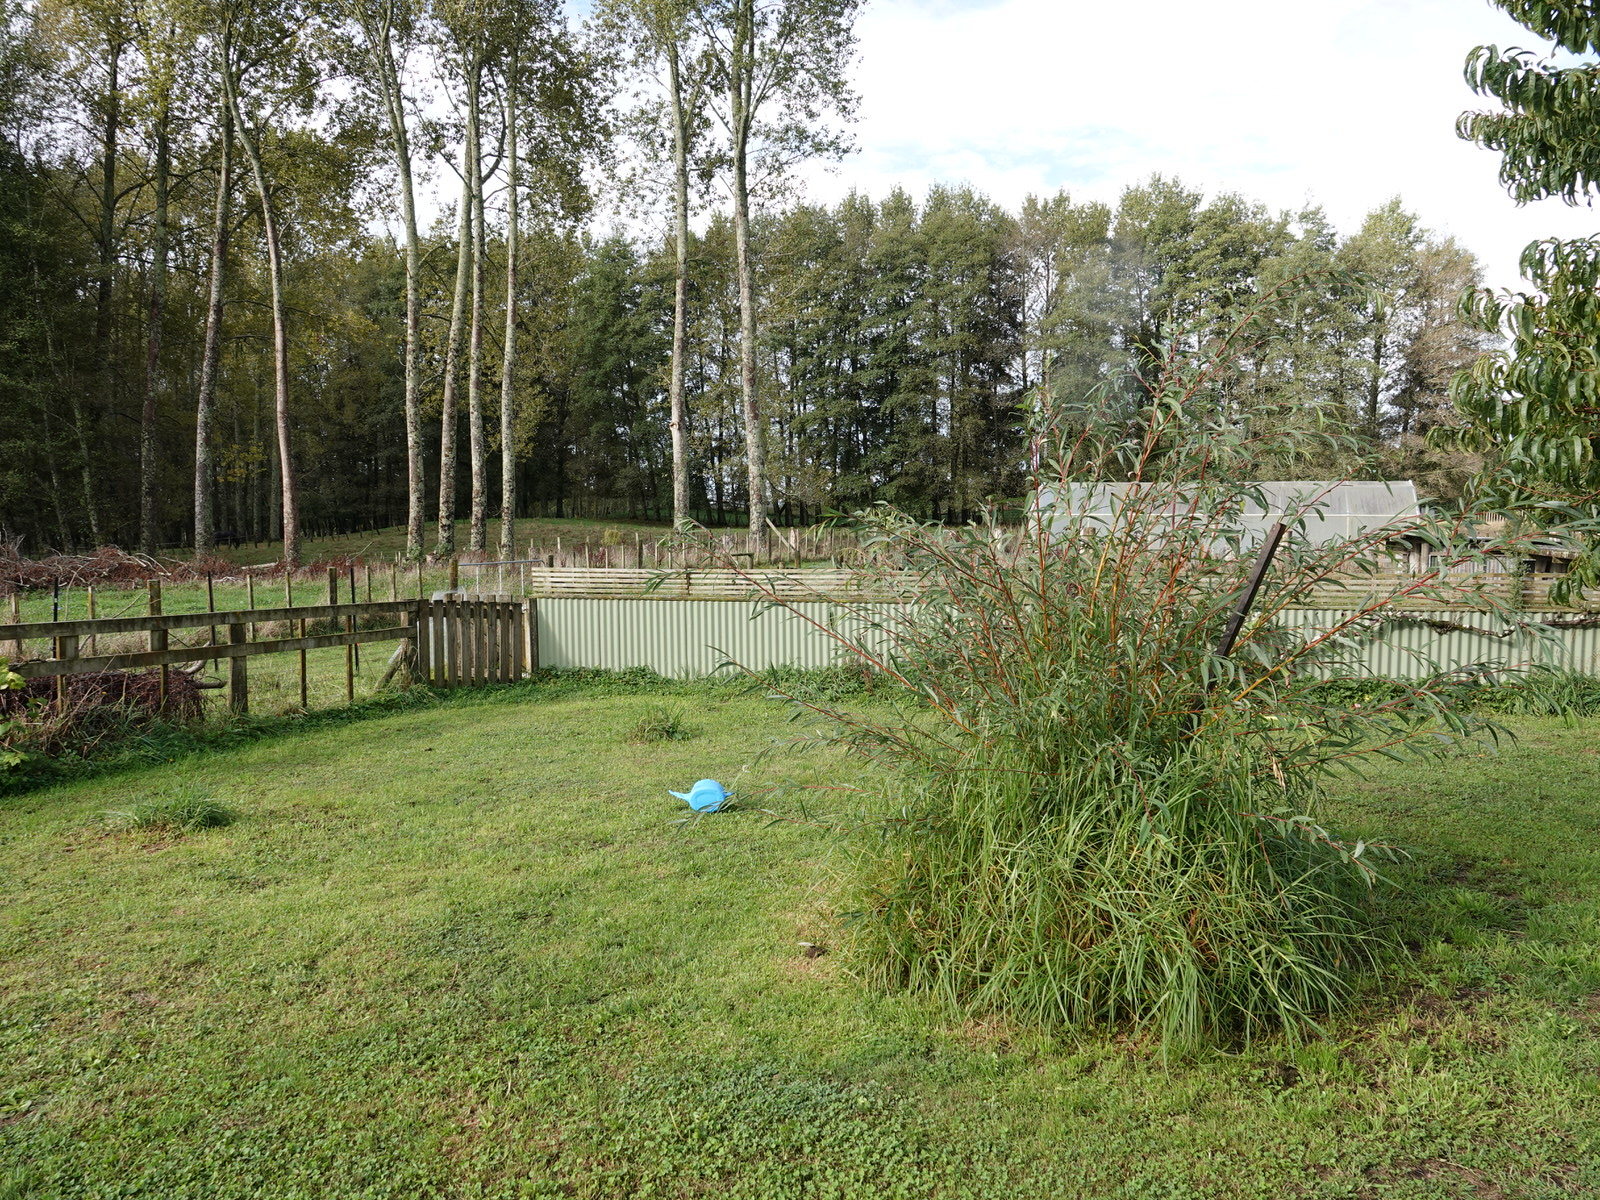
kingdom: Animalia
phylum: Arthropoda
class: Insecta
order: Hymenoptera
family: Vespidae
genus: Vespula
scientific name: Vespula vulgaris
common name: Common wasp
